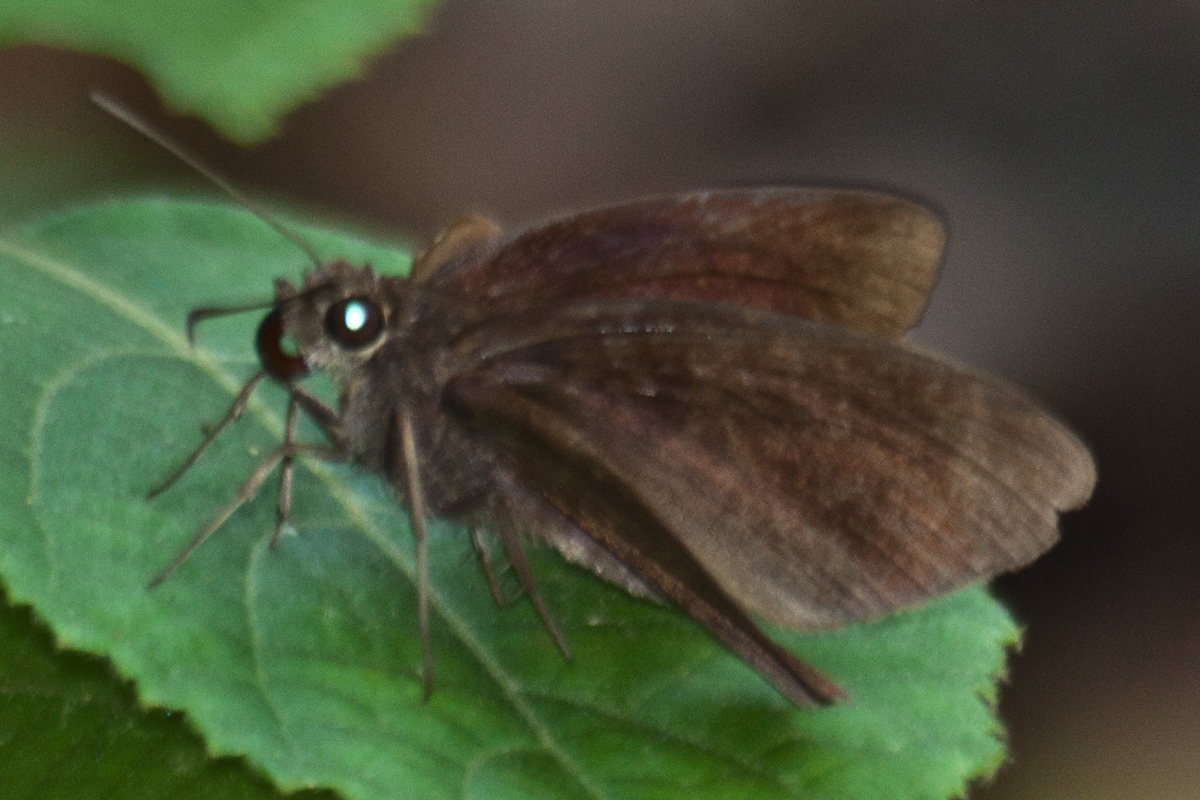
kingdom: Animalia
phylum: Arthropoda
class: Insecta
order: Lepidoptera
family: Hesperiidae
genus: Ancistroides
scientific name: Ancistroides nigrita
